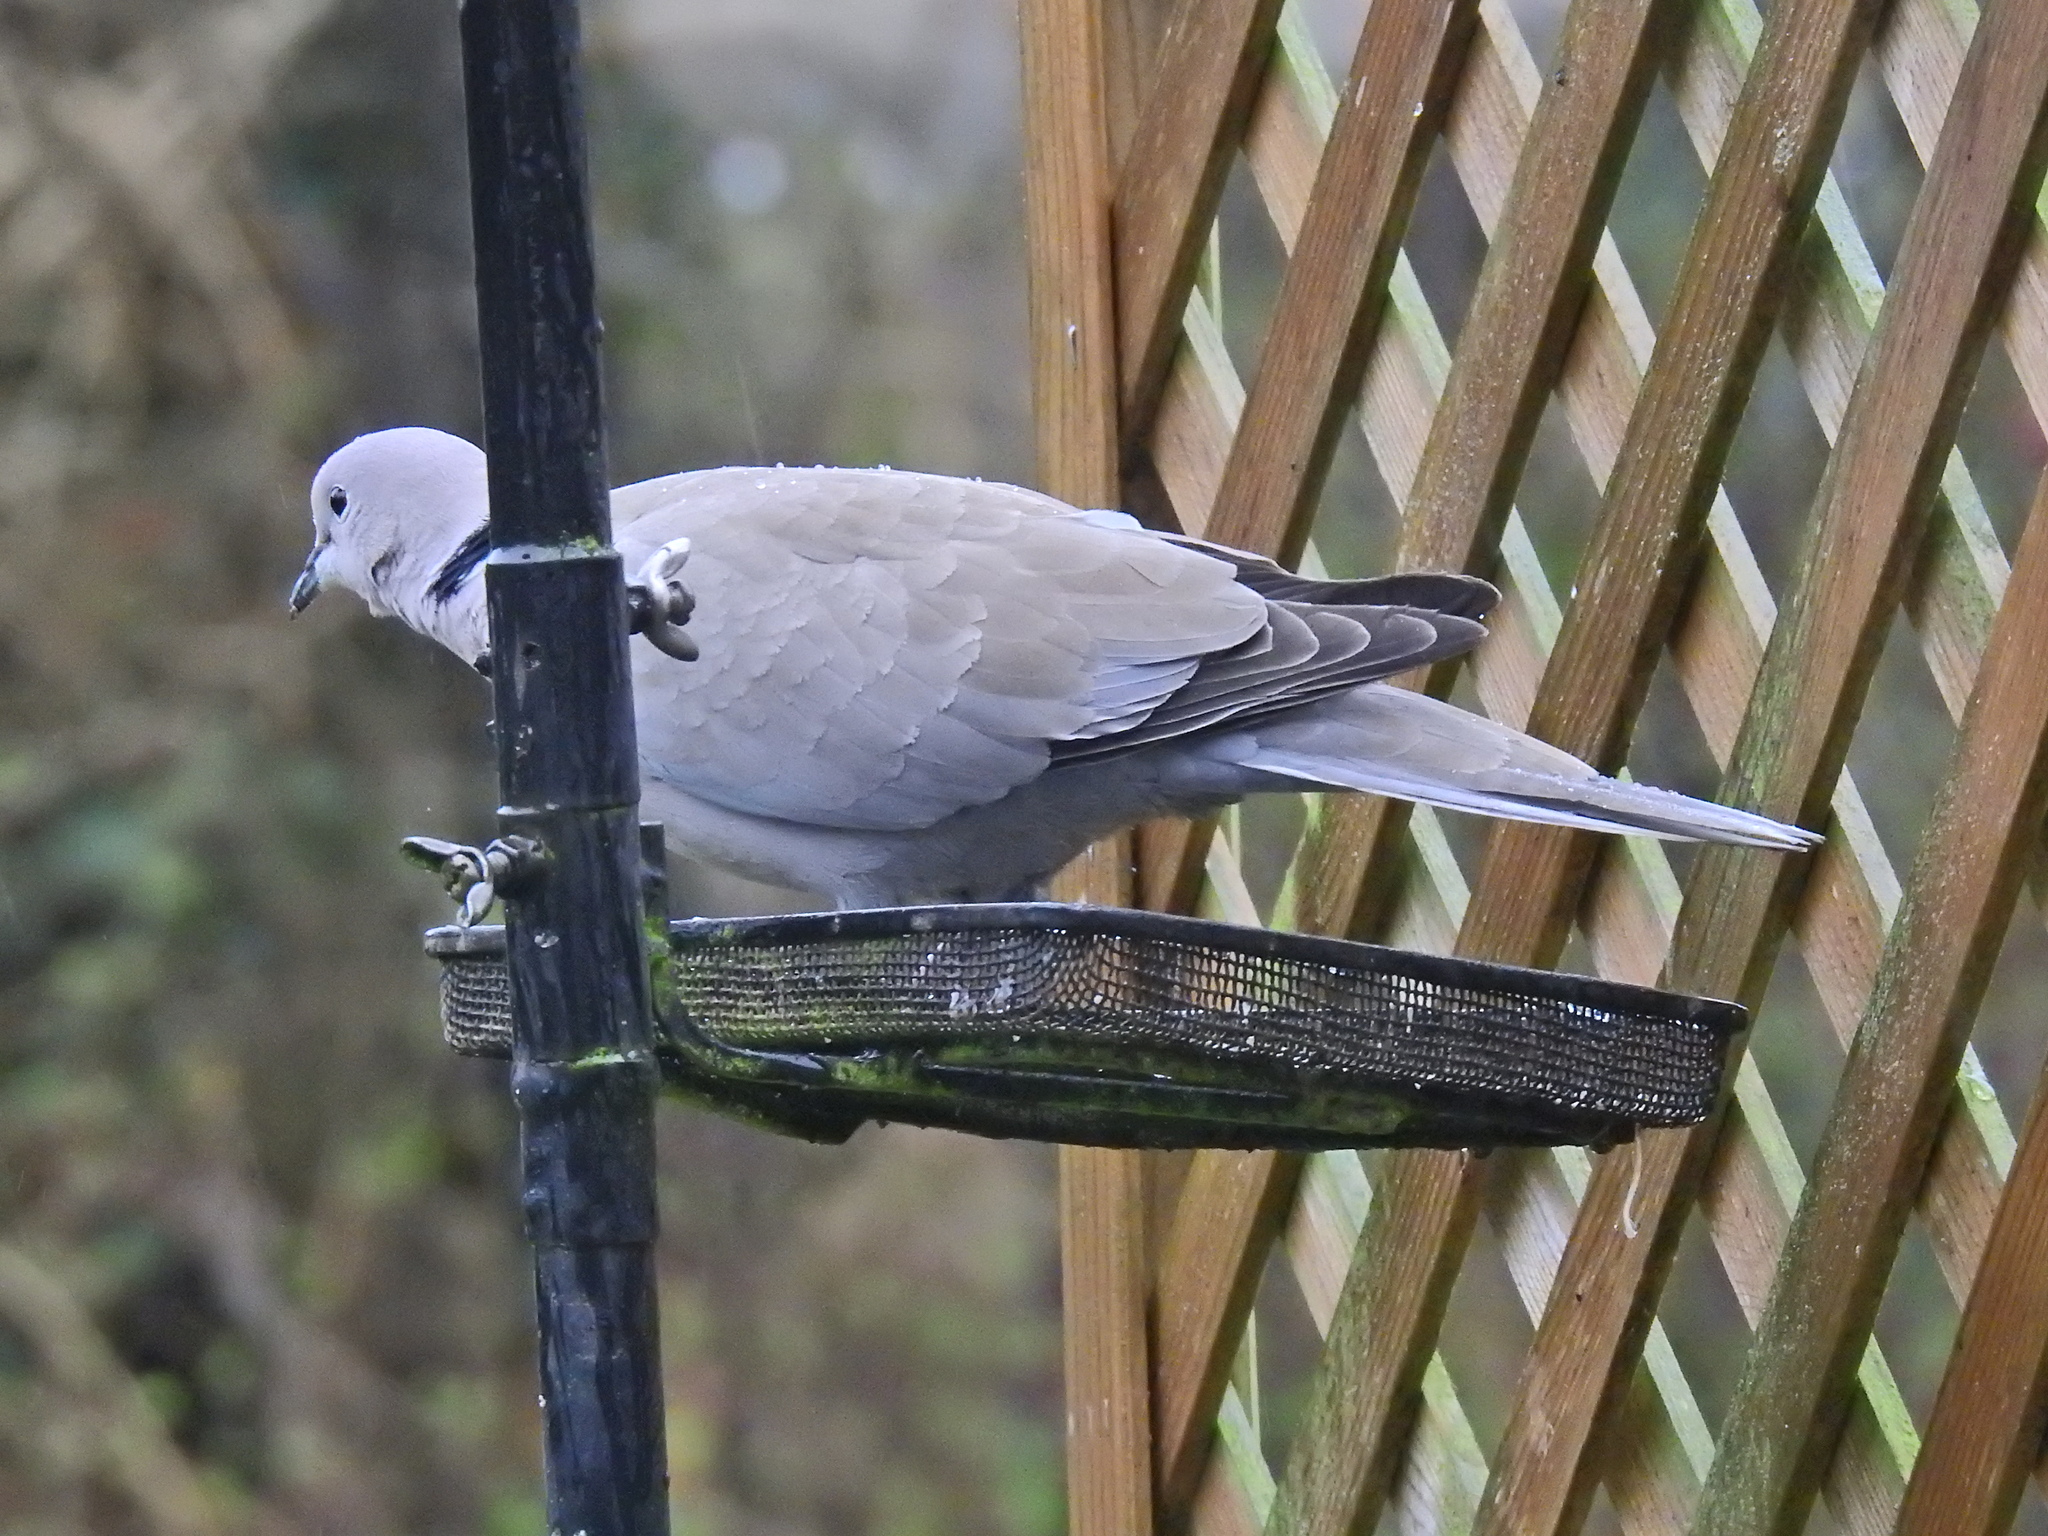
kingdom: Animalia
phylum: Chordata
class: Aves
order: Columbiformes
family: Columbidae
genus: Streptopelia
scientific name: Streptopelia decaocto
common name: Eurasian collared dove
